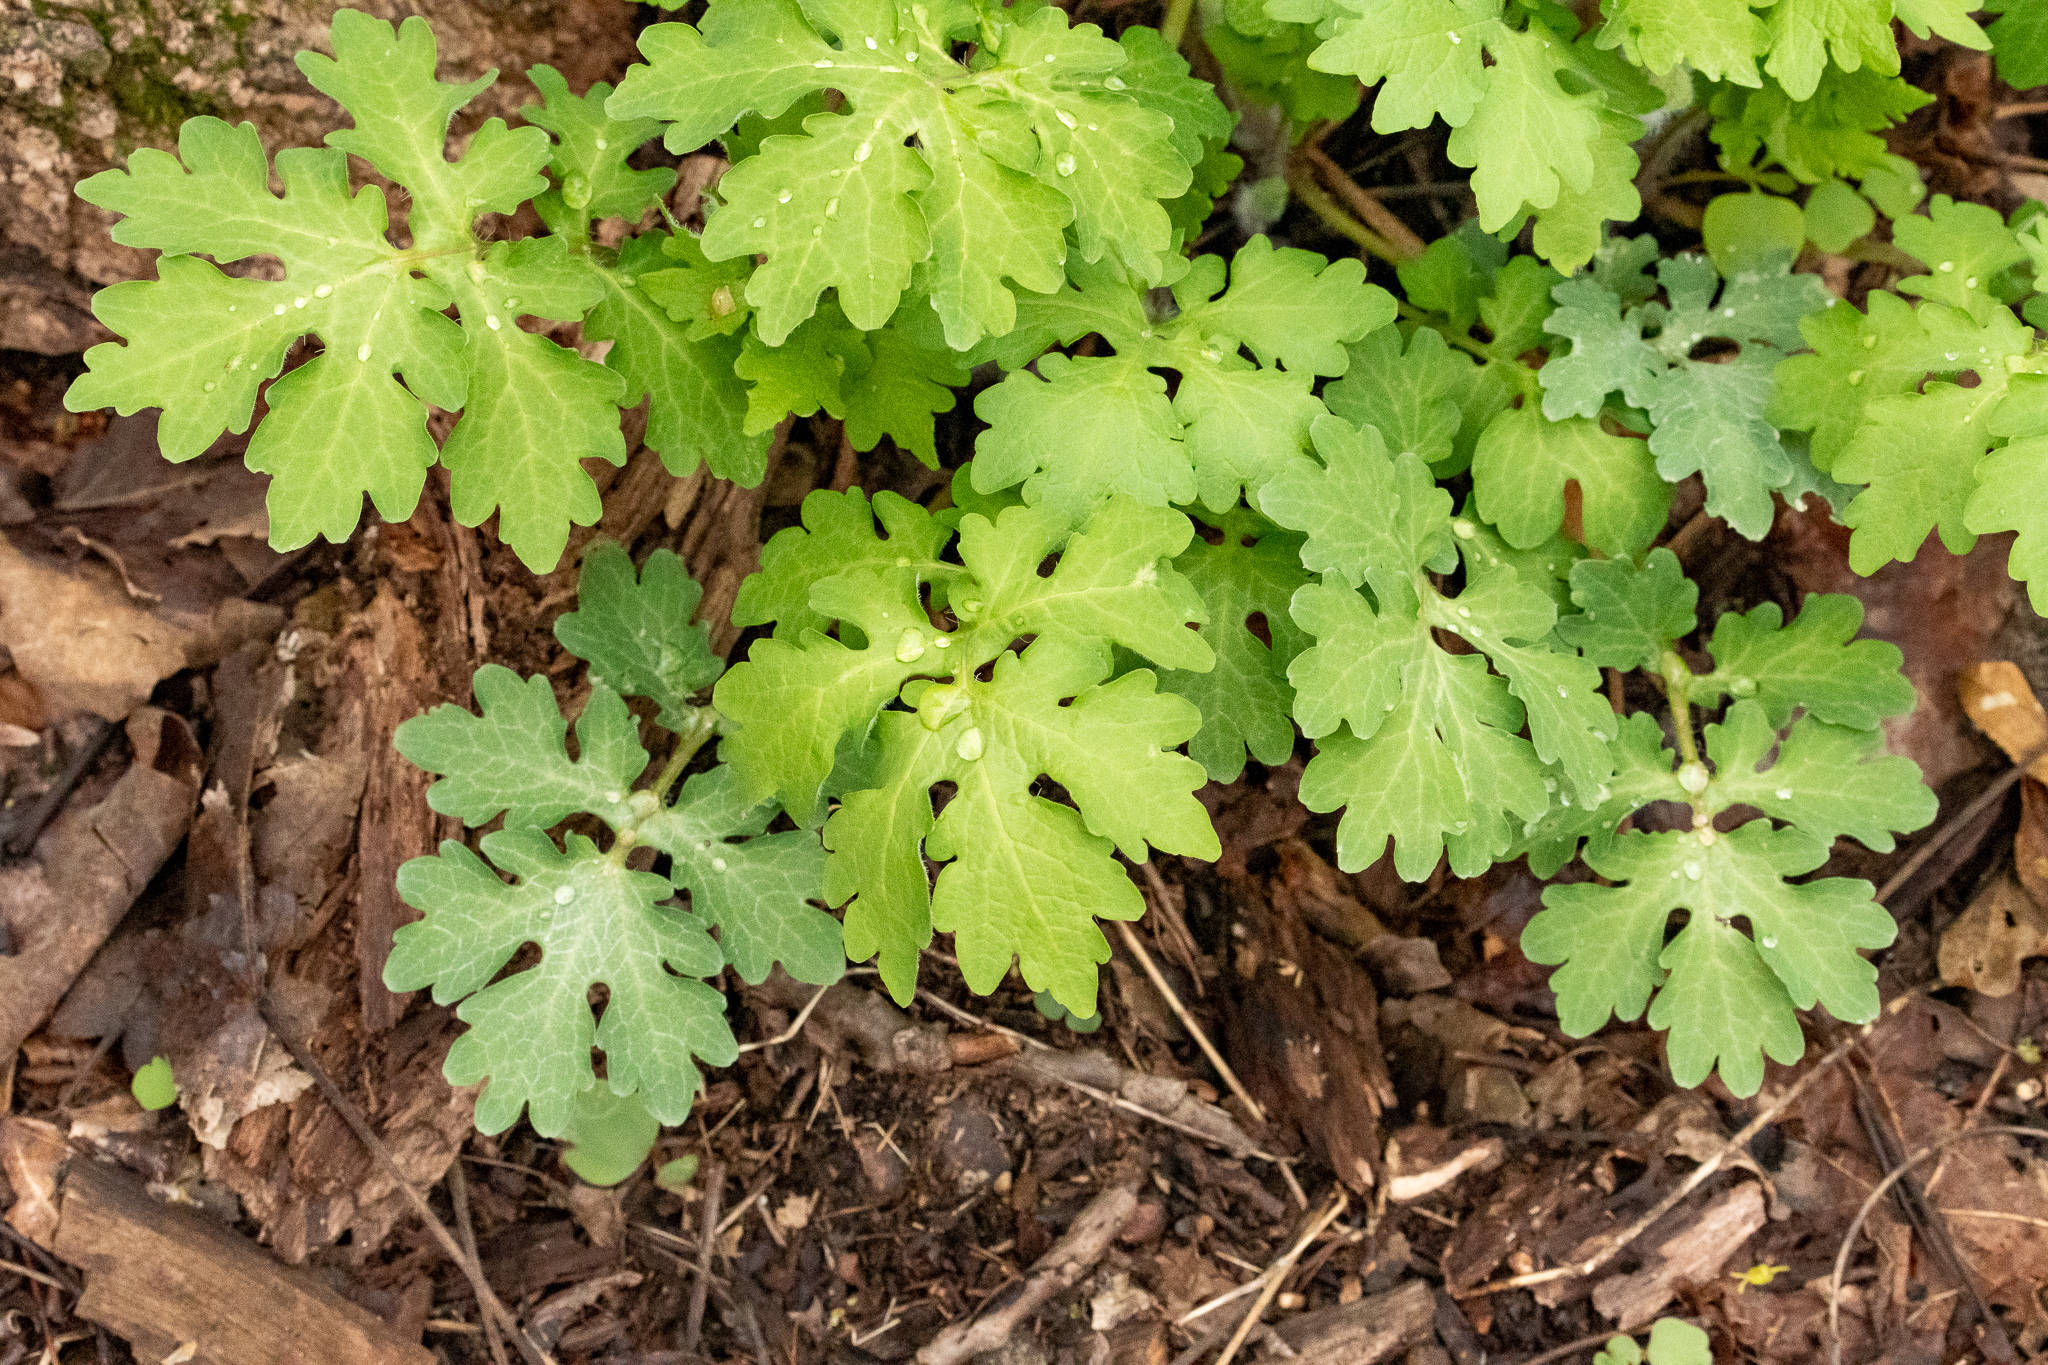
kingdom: Plantae
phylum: Tracheophyta
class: Magnoliopsida
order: Ranunculales
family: Papaveraceae
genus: Stylophorum
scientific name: Stylophorum diphyllum
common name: Celandine poppy
